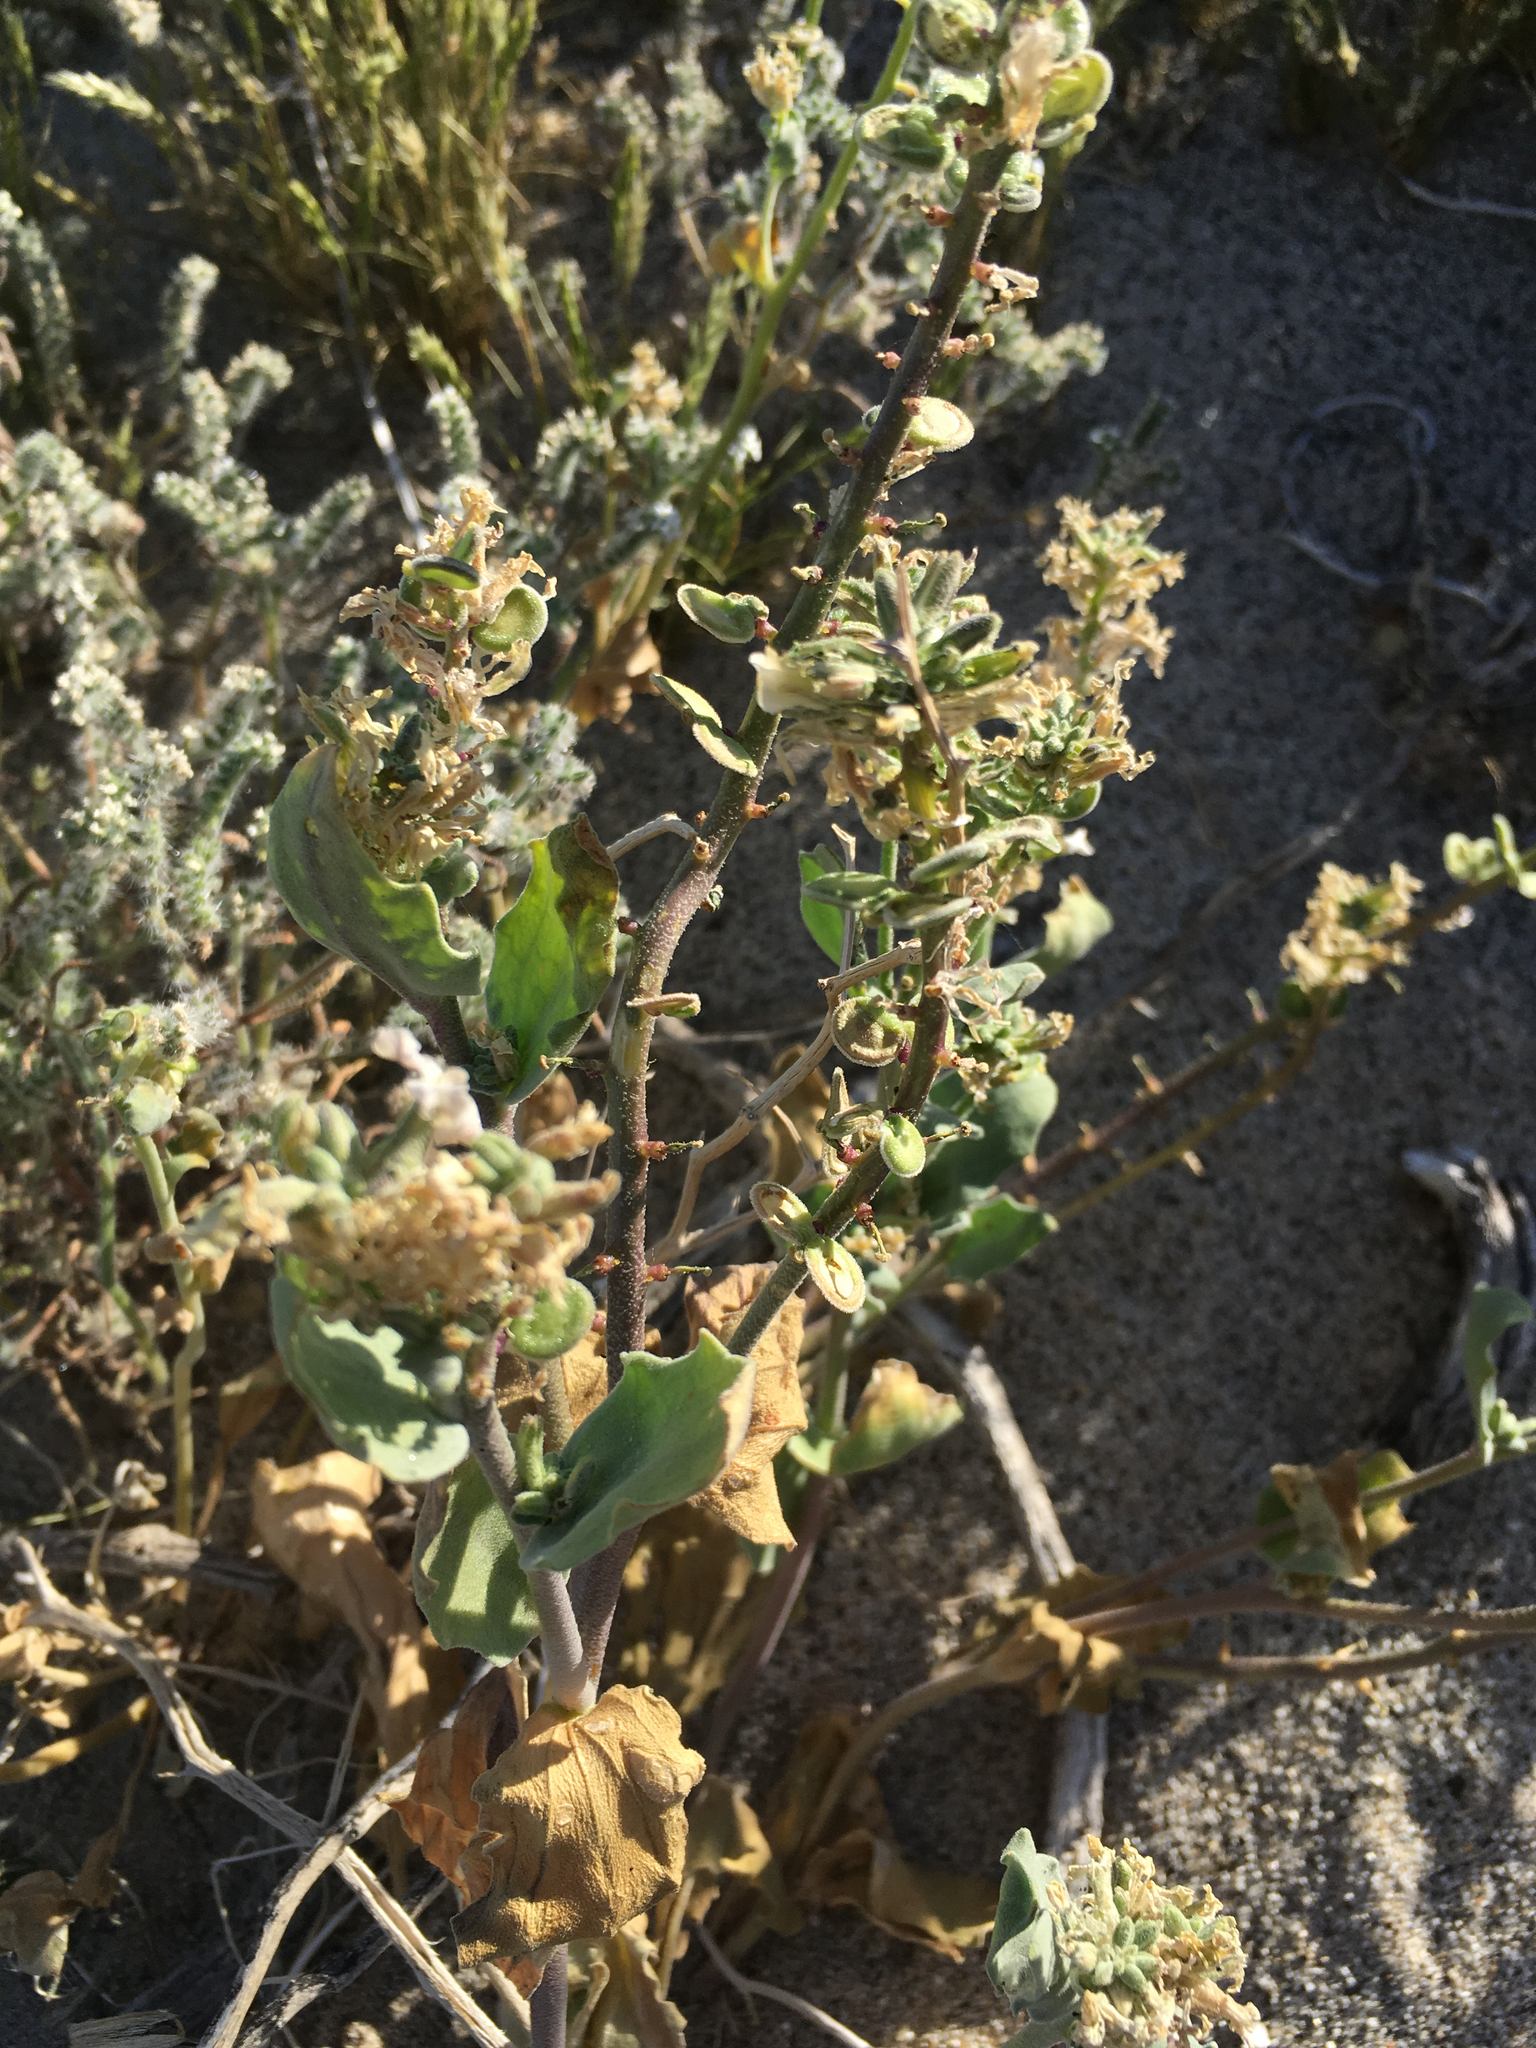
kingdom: Plantae
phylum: Tracheophyta
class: Magnoliopsida
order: Brassicales
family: Brassicaceae
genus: Dithyrea
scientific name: Dithyrea californica
